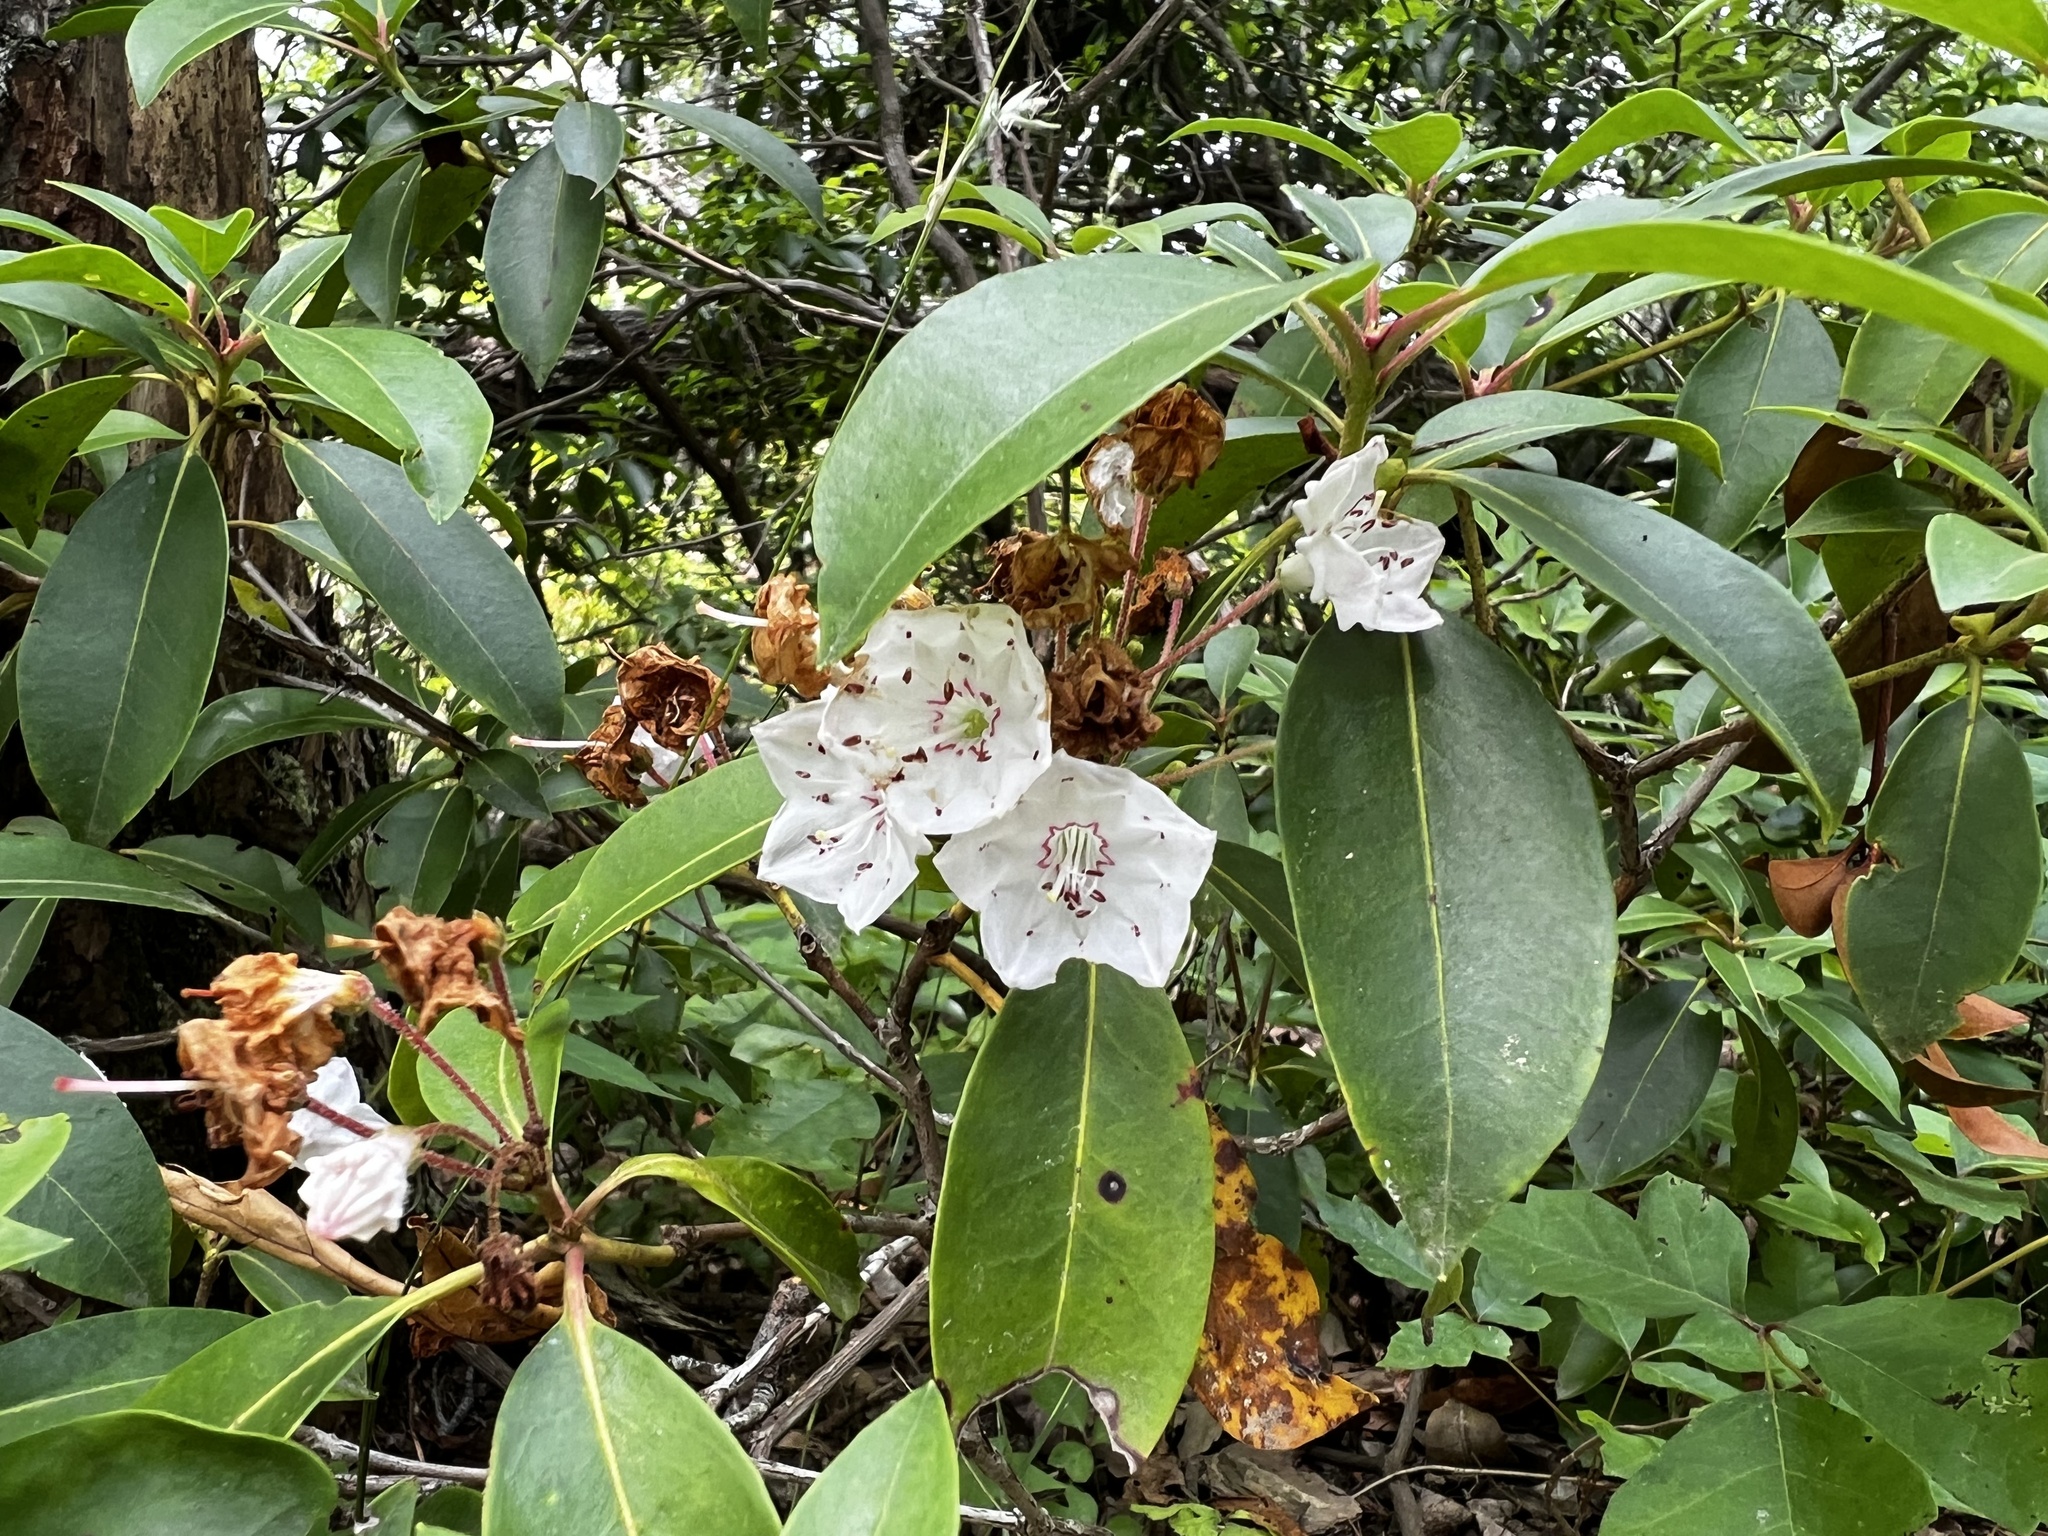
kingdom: Plantae
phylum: Tracheophyta
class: Magnoliopsida
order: Ericales
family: Ericaceae
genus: Kalmia
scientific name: Kalmia latifolia
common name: Mountain-laurel
